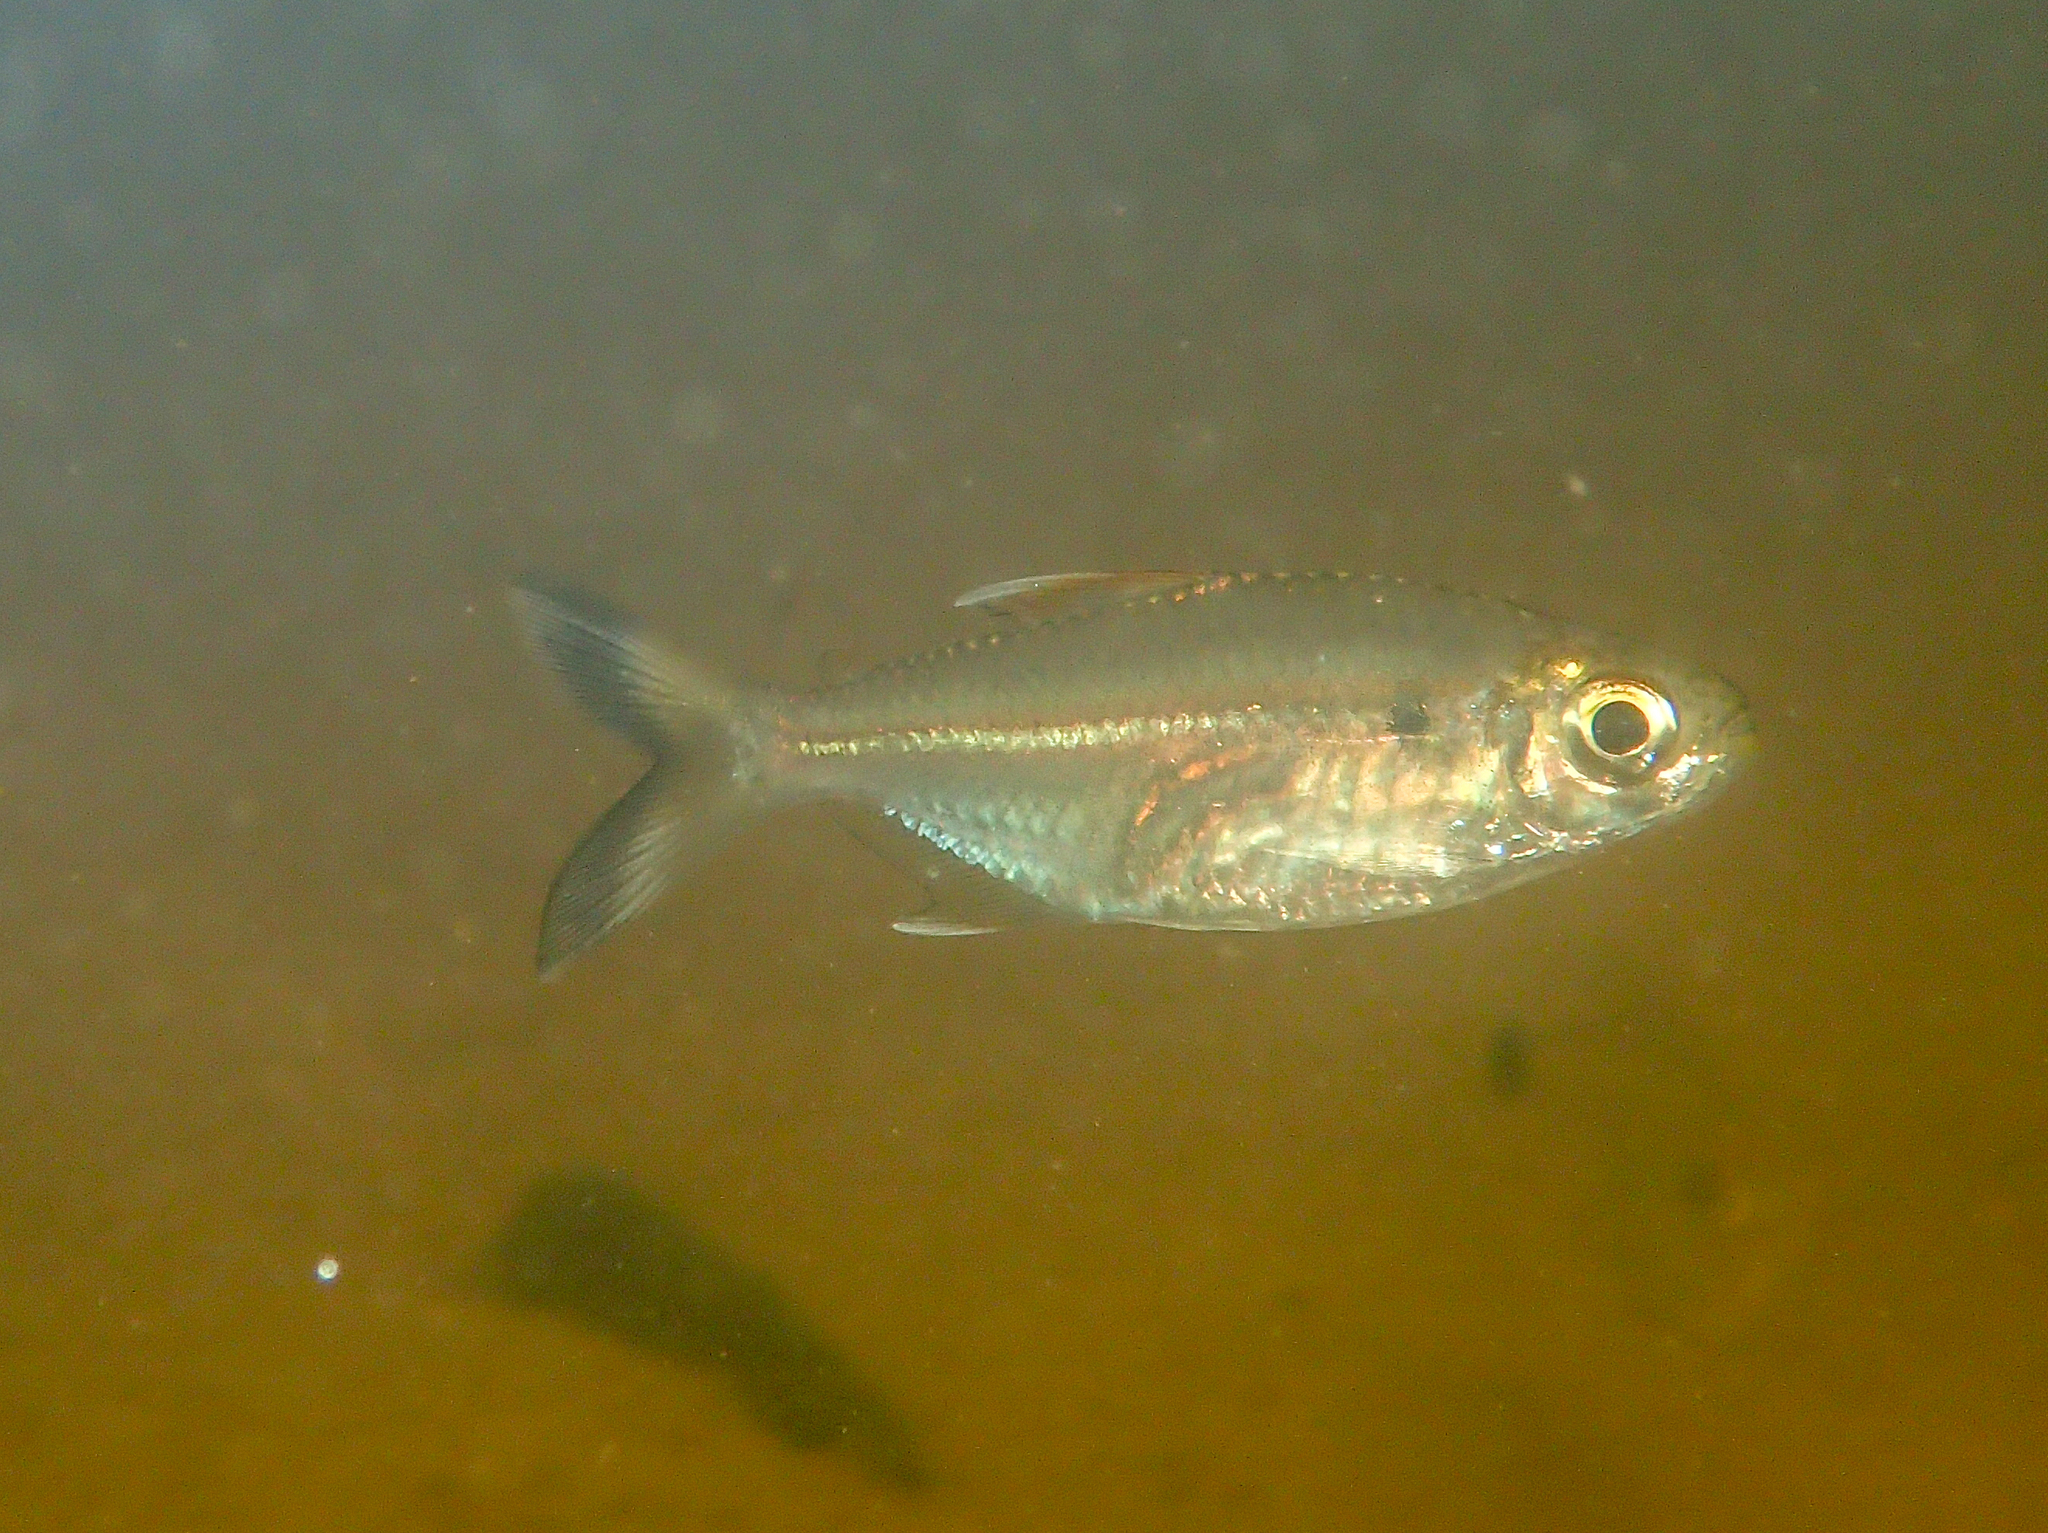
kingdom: Animalia
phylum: Chordata
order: Characiformes
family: Characidae
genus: Moenkhausia
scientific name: Moenkhausia intermedia
